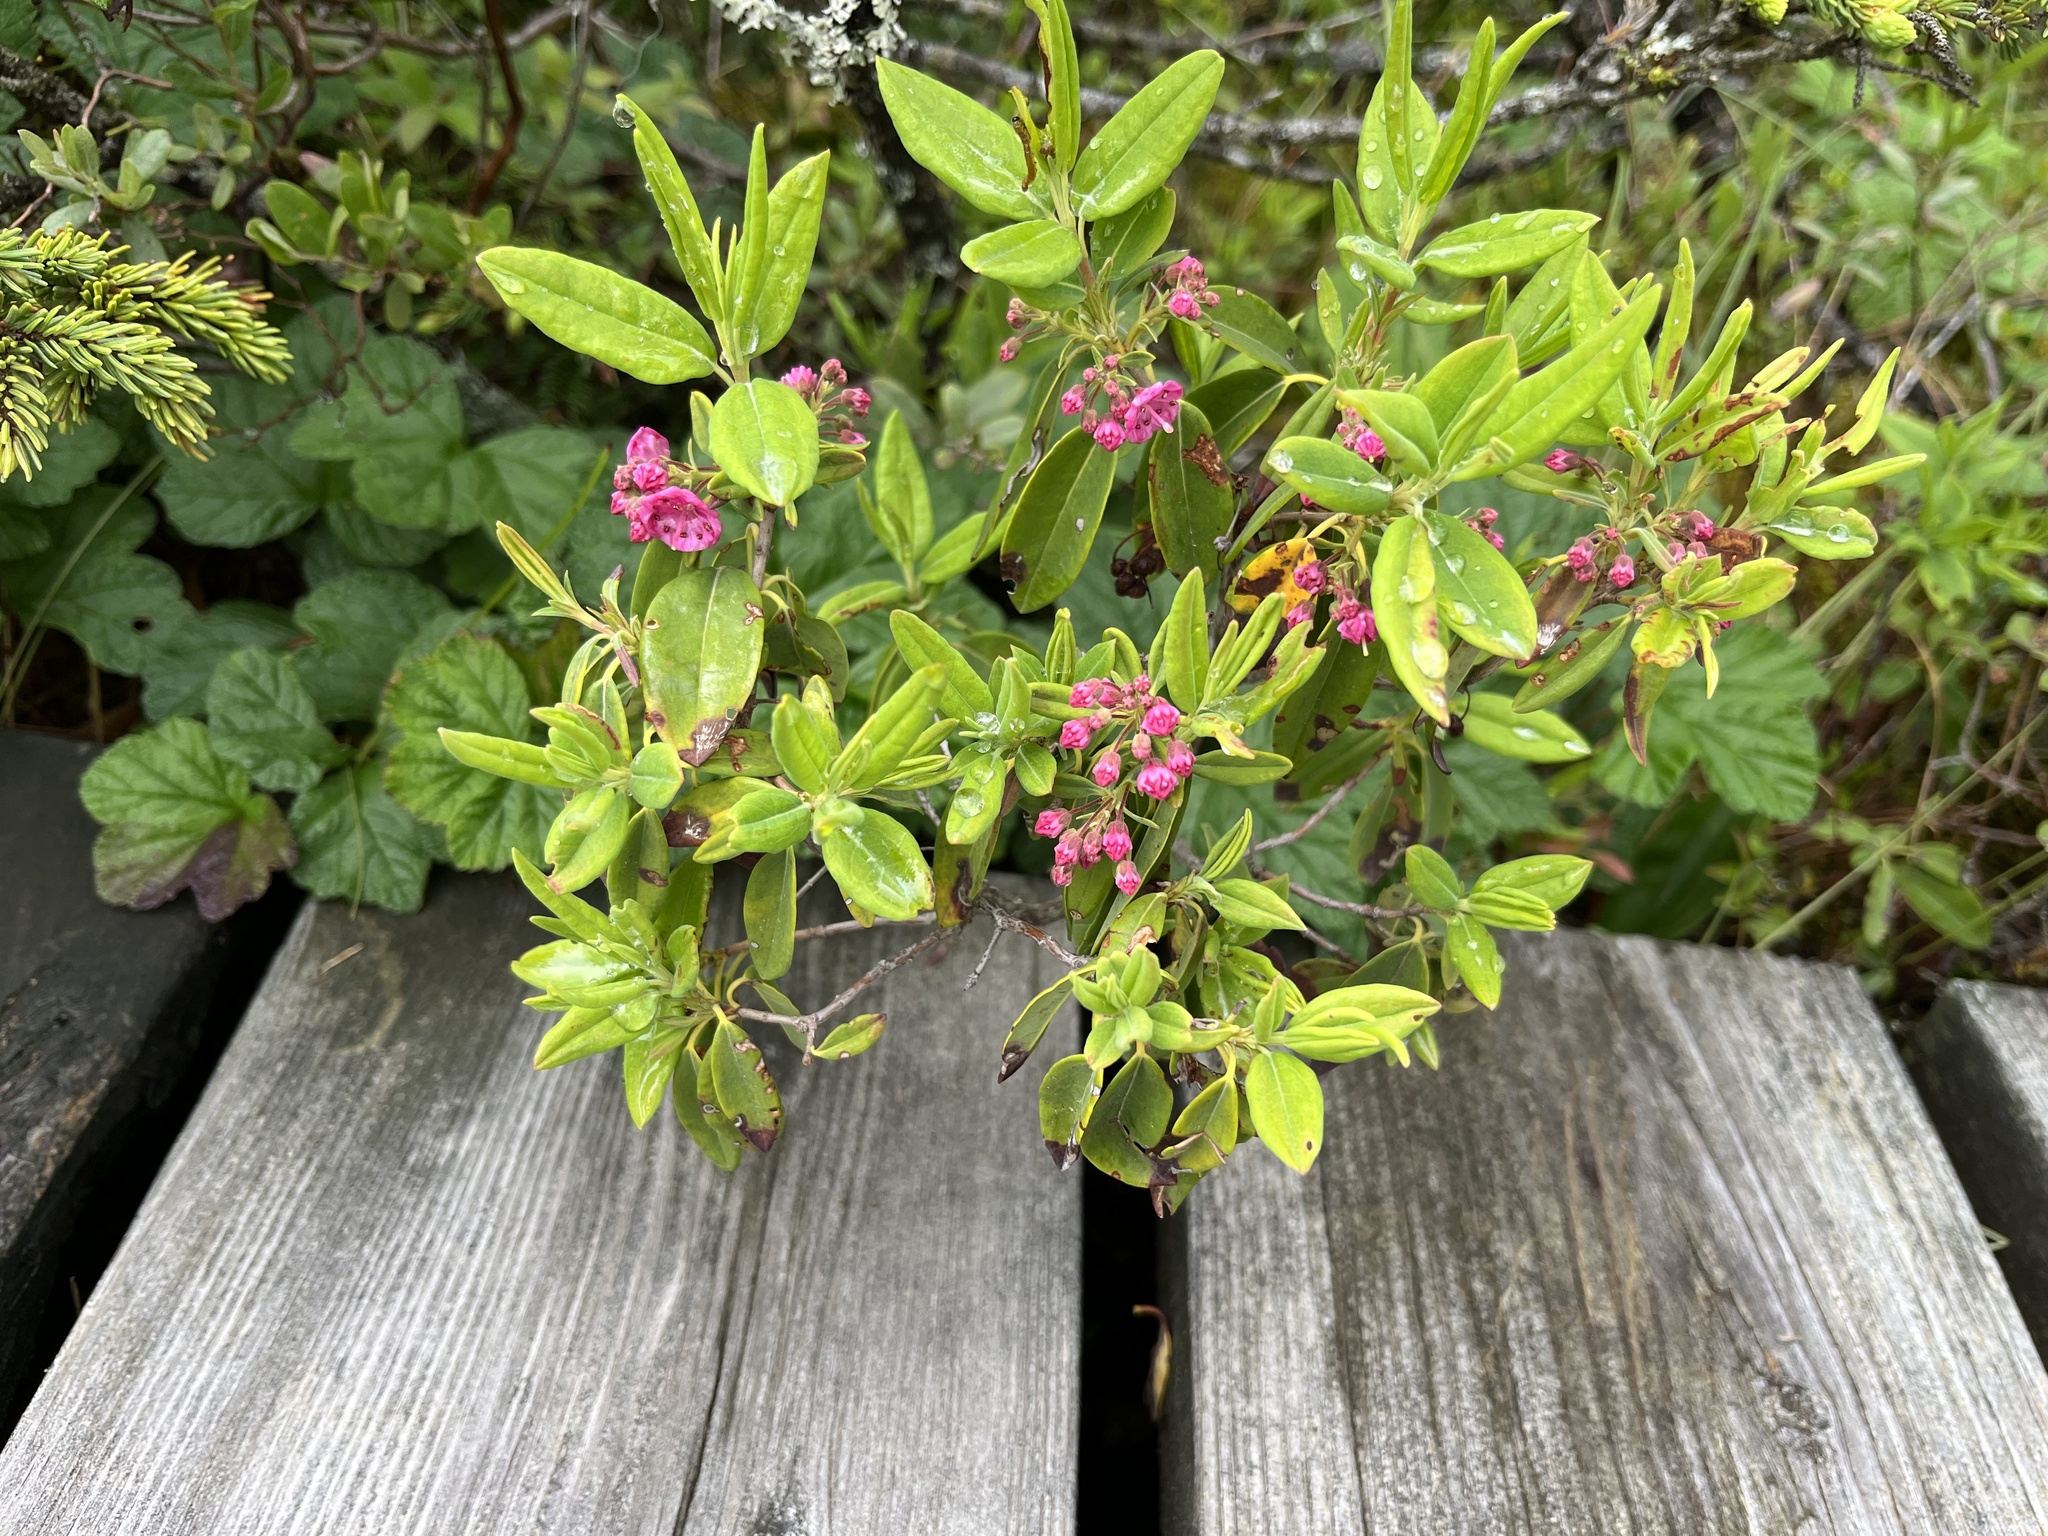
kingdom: Plantae
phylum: Tracheophyta
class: Magnoliopsida
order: Ericales
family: Ericaceae
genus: Kalmia
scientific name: Kalmia angustifolia
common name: Sheep-laurel
